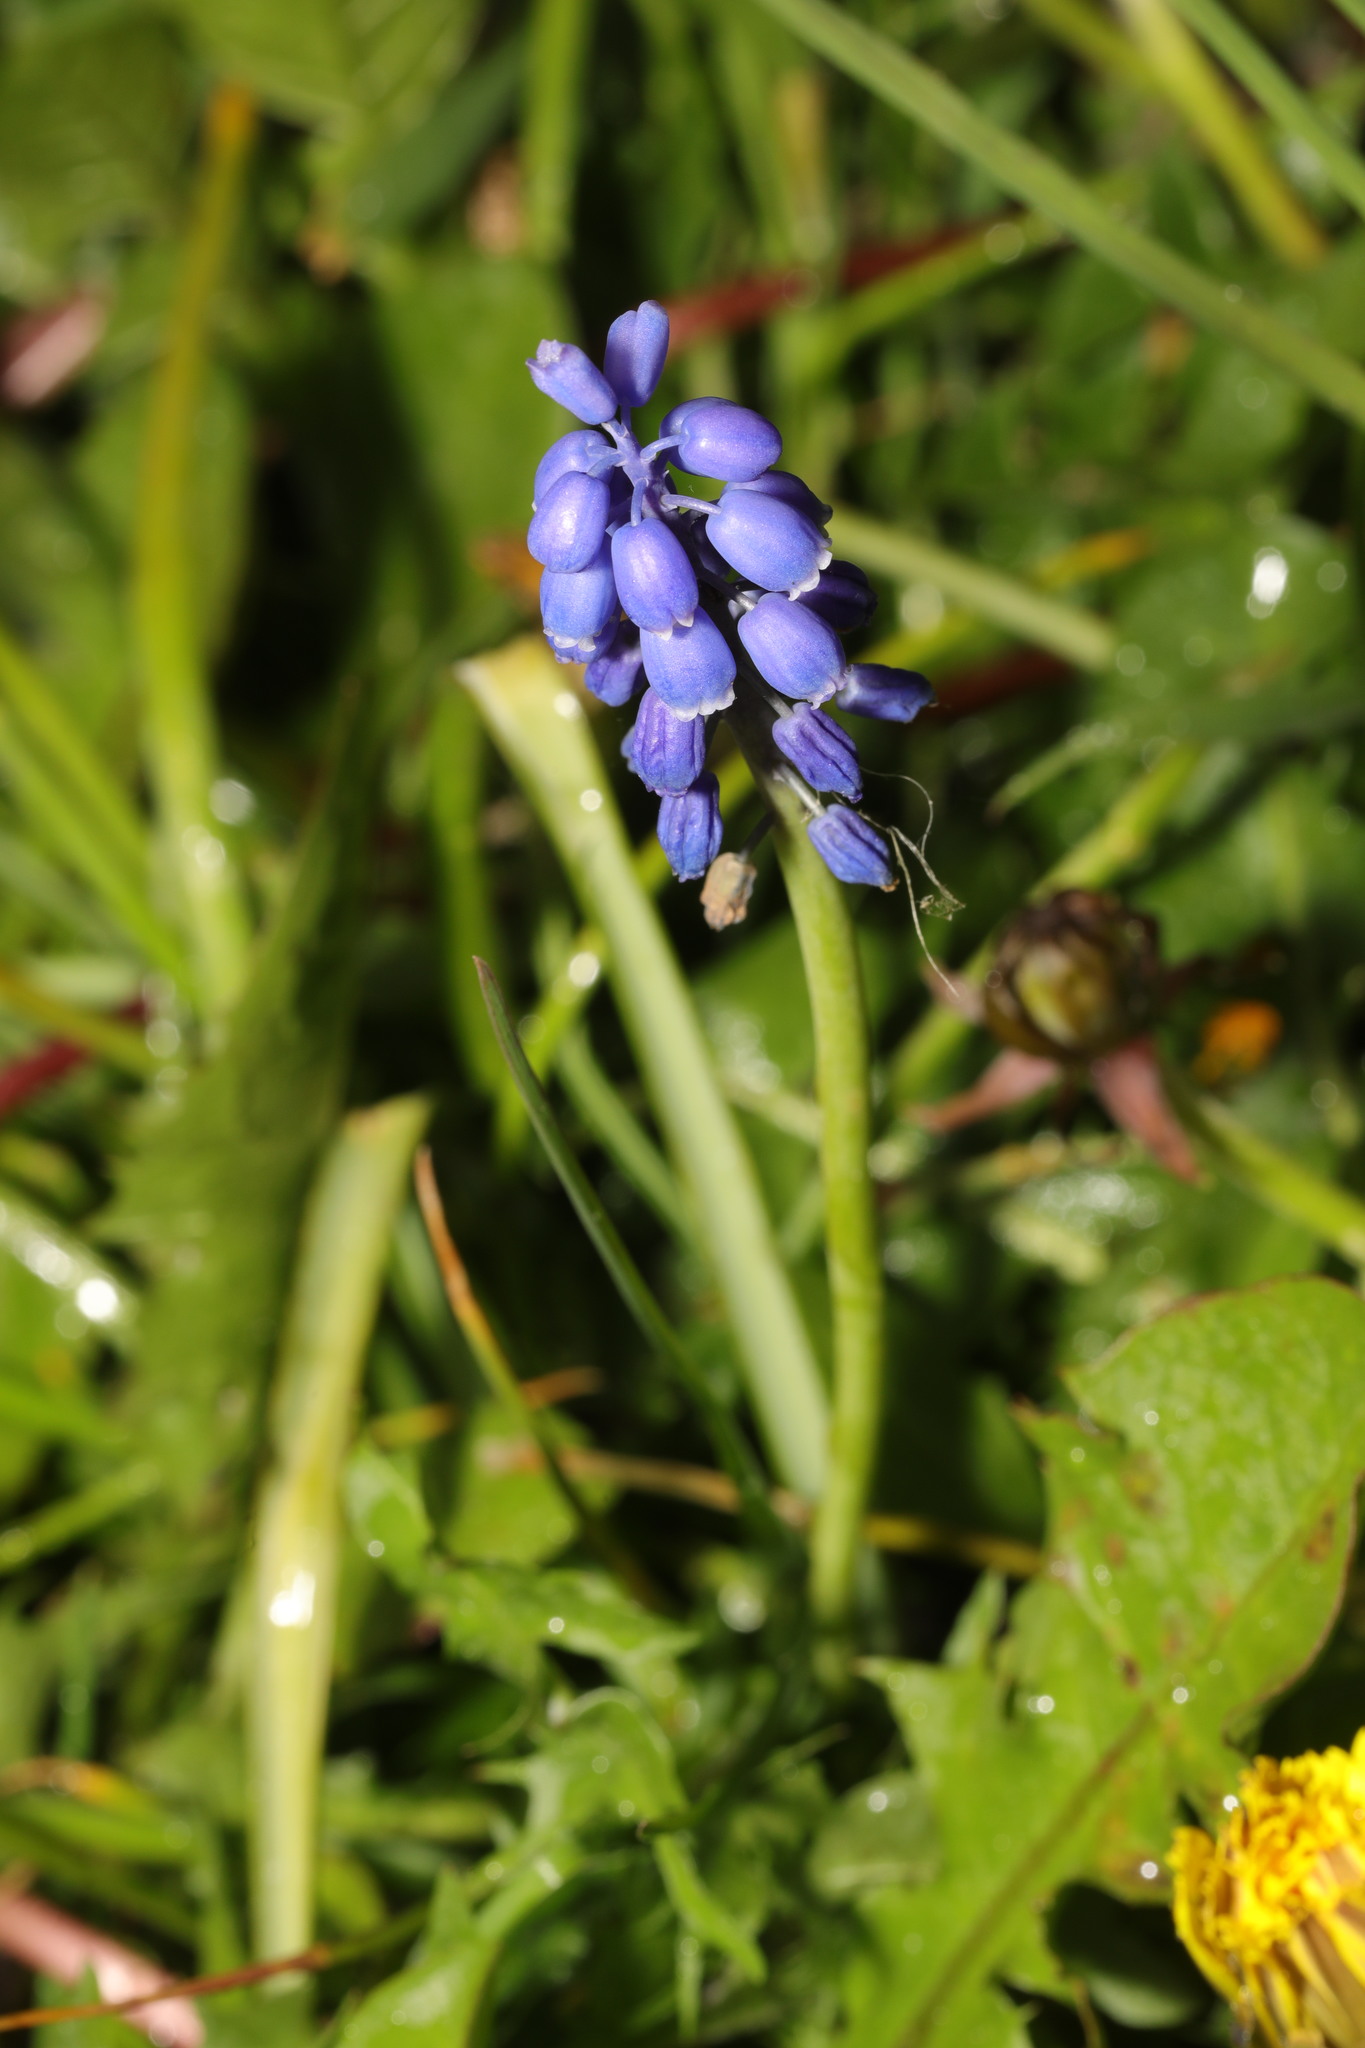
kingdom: Plantae
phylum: Tracheophyta
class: Liliopsida
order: Asparagales
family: Asparagaceae
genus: Muscari
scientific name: Muscari armeniacum
